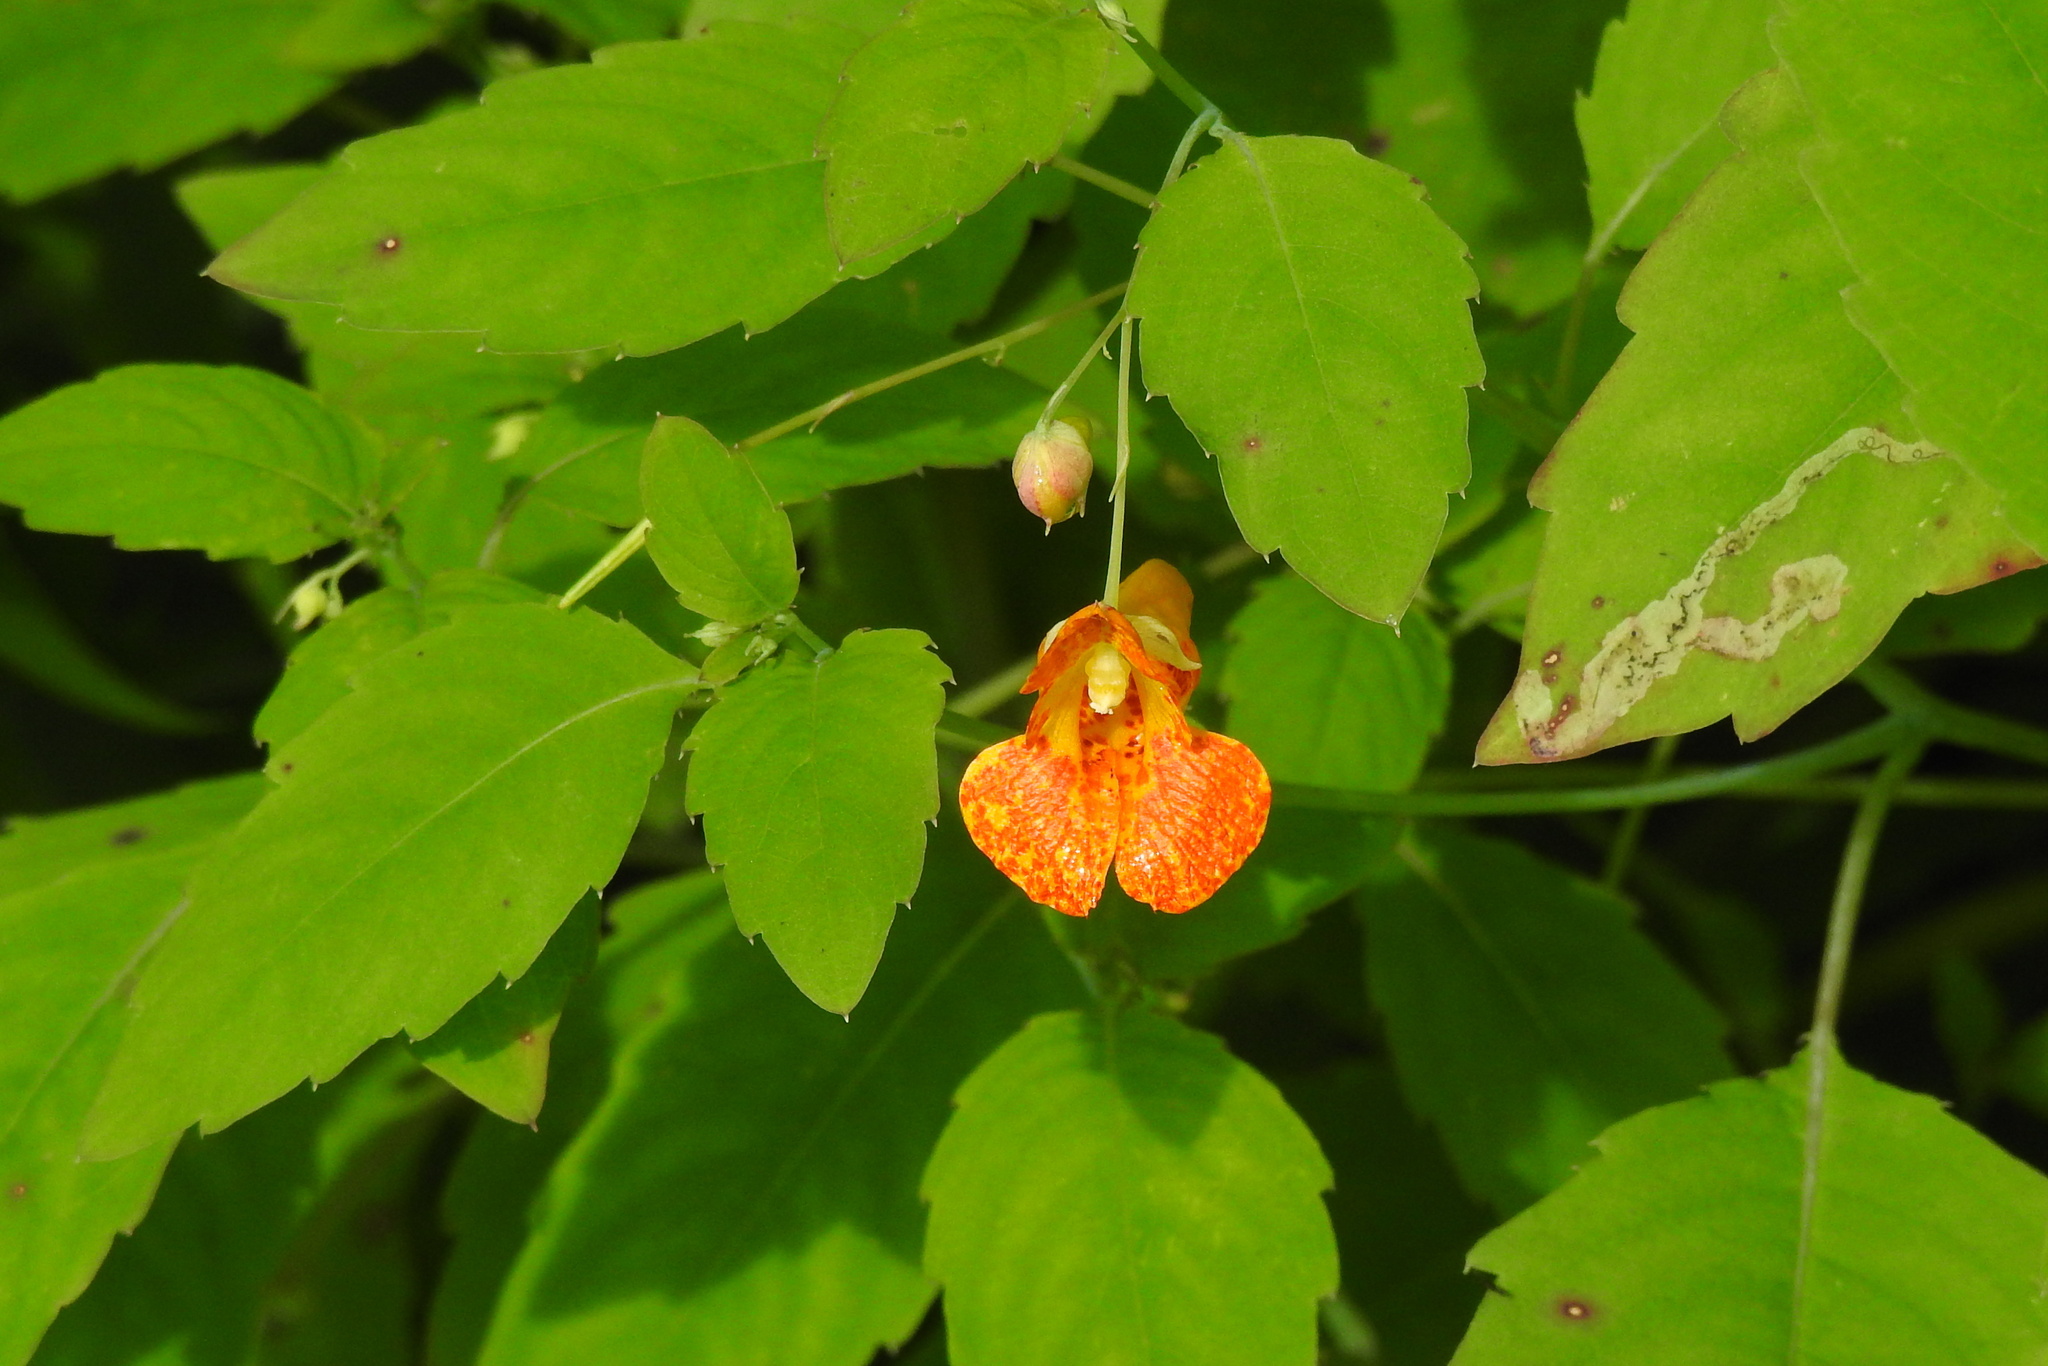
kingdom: Plantae
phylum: Tracheophyta
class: Magnoliopsida
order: Ericales
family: Balsaminaceae
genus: Impatiens
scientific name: Impatiens capensis
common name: Orange balsam
